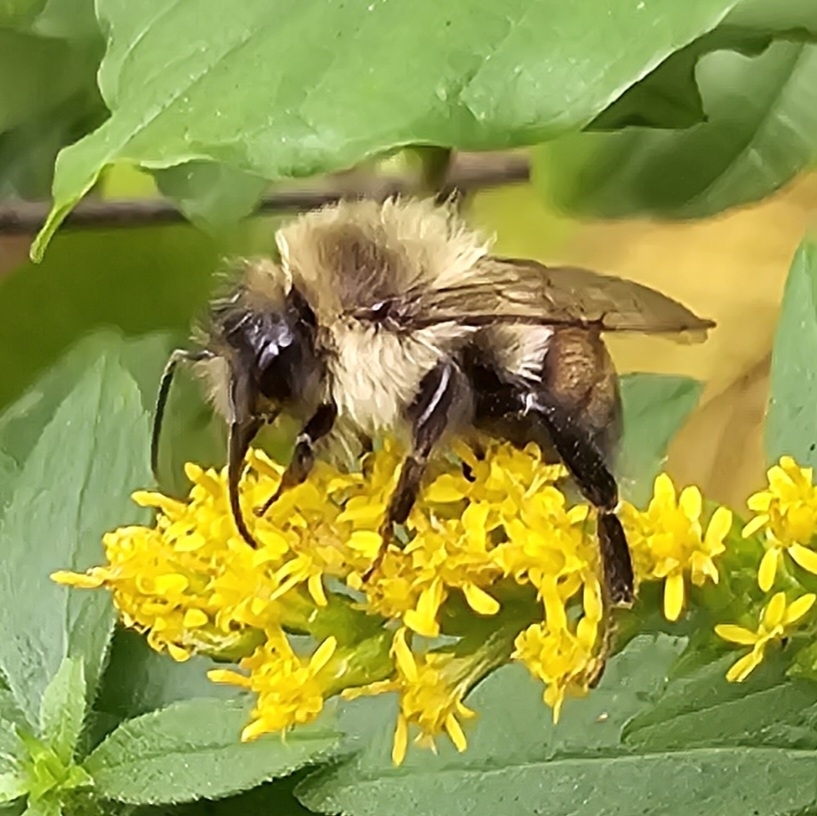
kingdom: Animalia
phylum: Arthropoda
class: Insecta
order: Hymenoptera
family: Apidae
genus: Bombus
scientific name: Bombus impatiens
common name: Common eastern bumble bee
